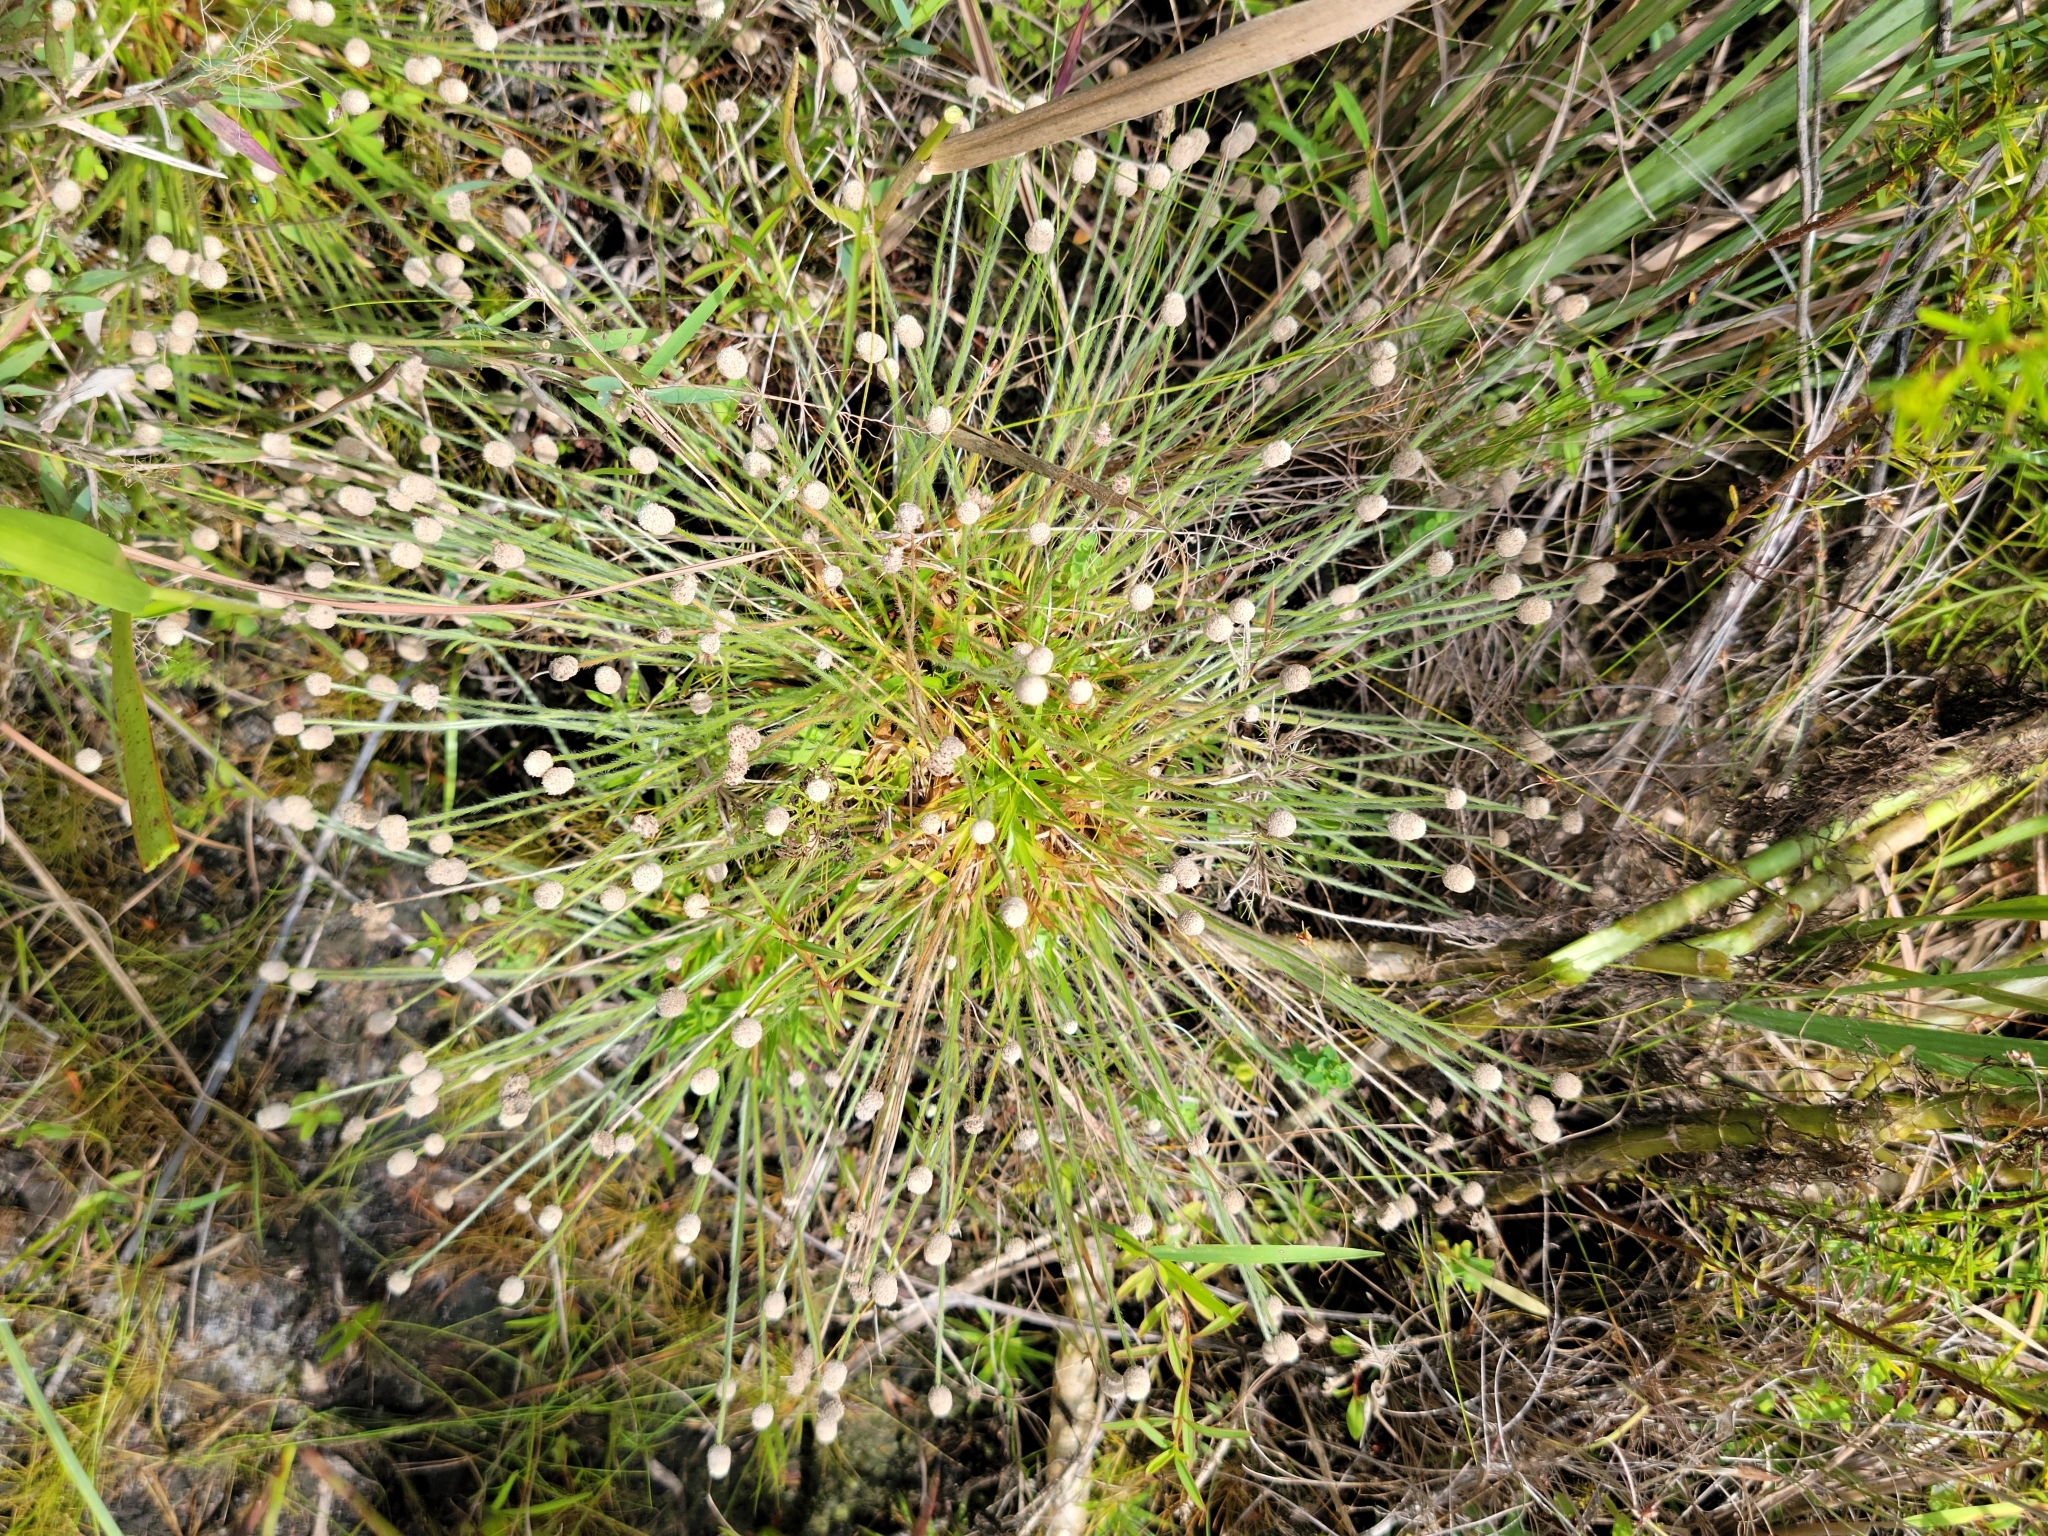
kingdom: Plantae
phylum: Tracheophyta
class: Liliopsida
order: Poales
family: Eriocaulaceae
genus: Paepalanthus
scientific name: Paepalanthus minus
